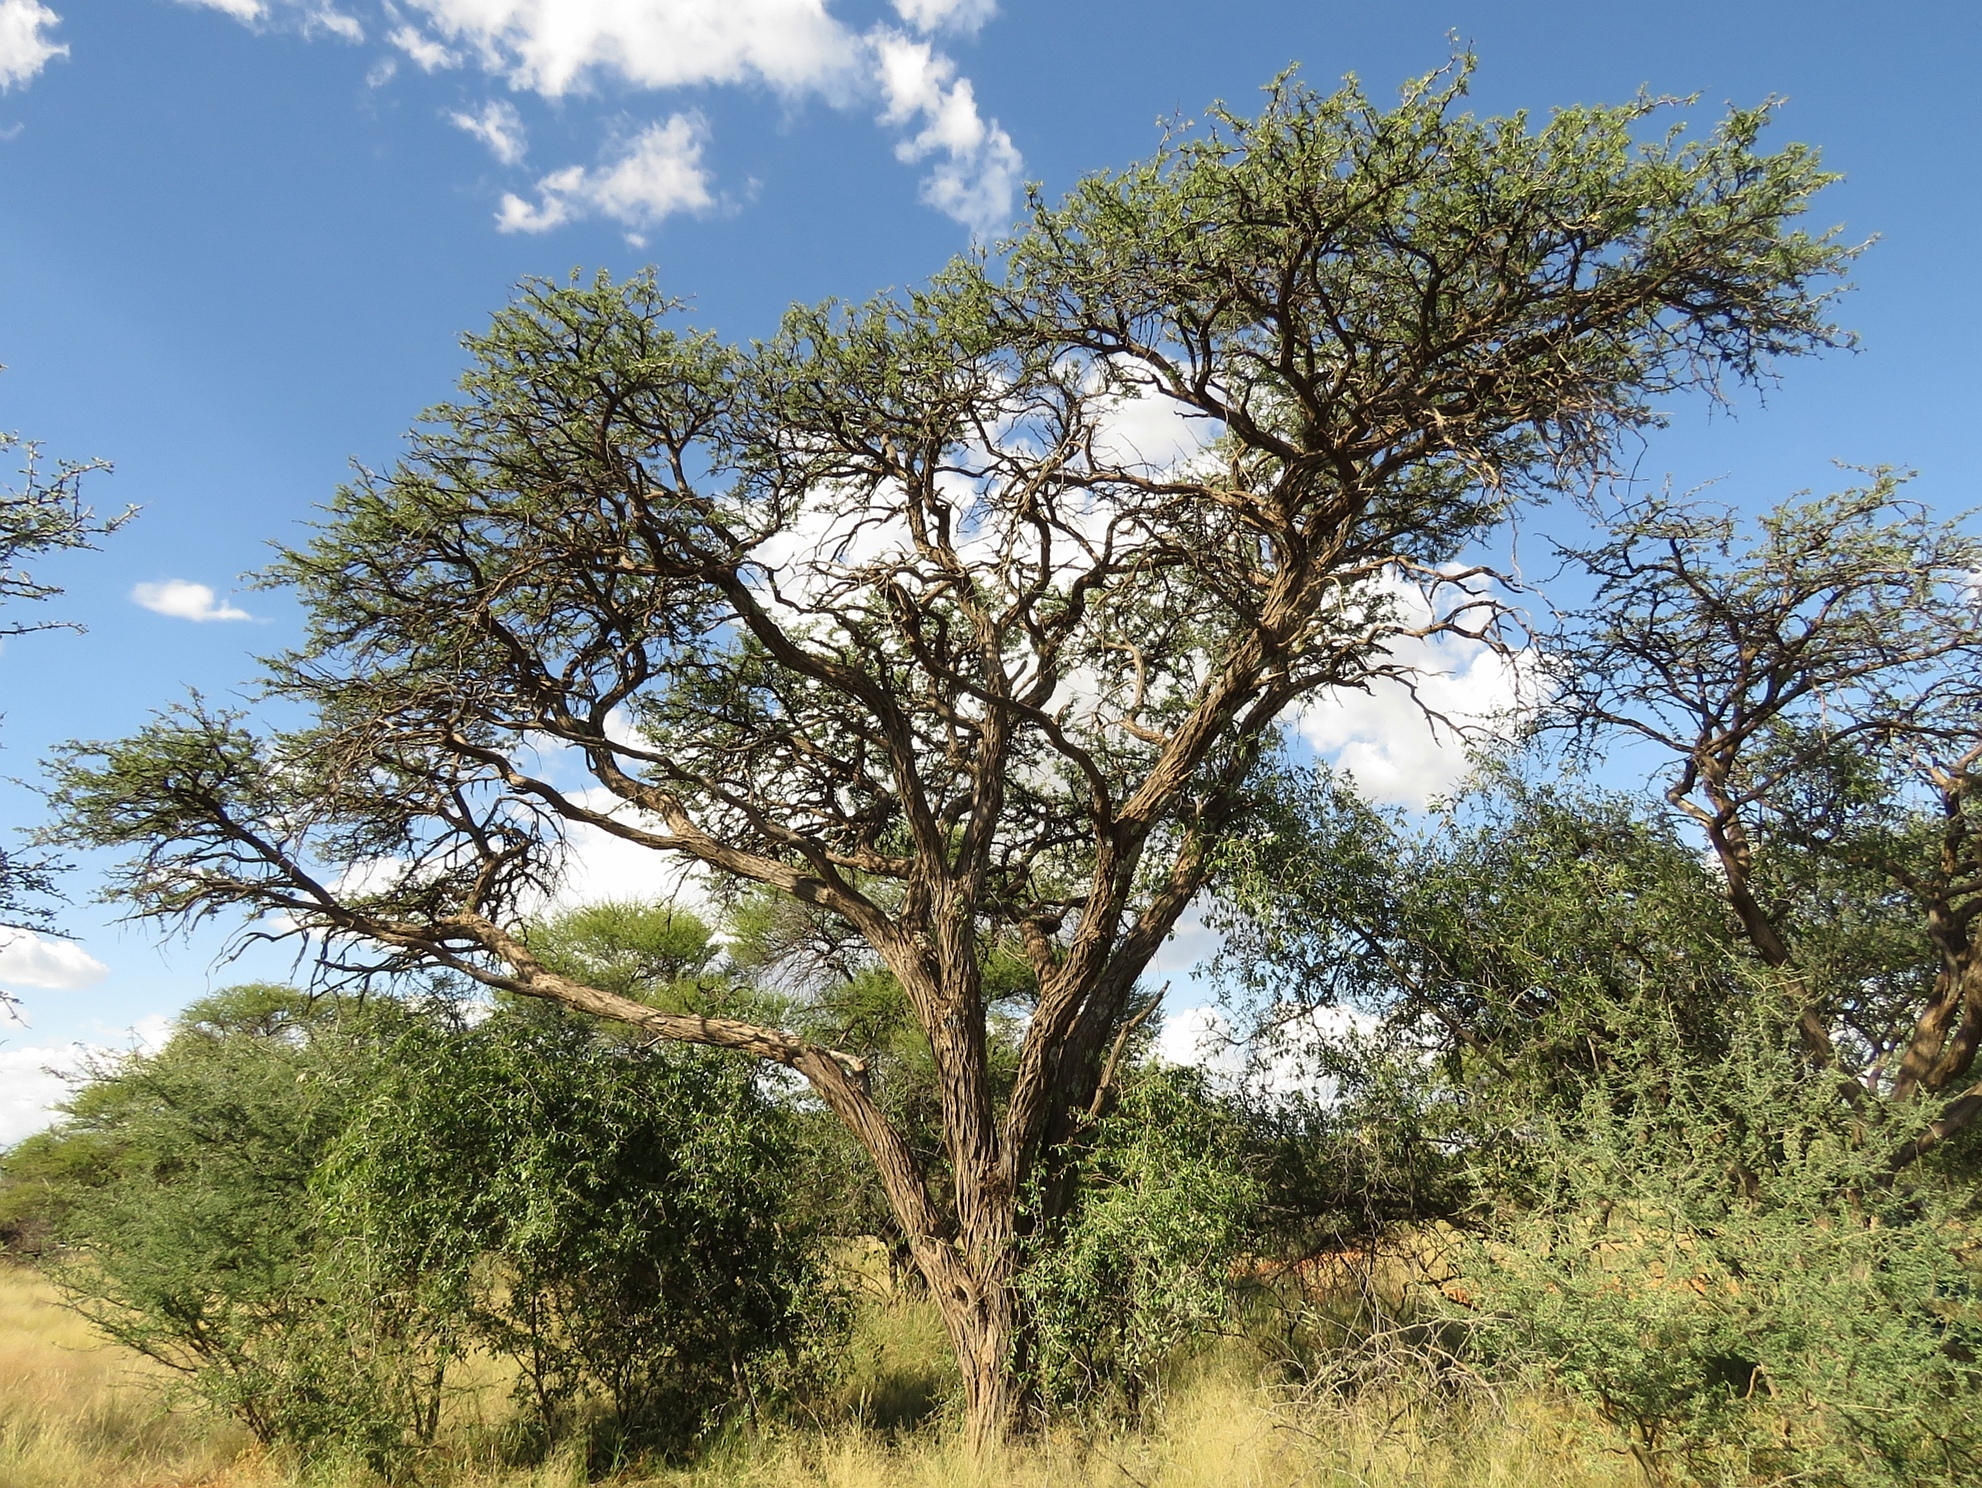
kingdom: Plantae
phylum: Tracheophyta
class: Magnoliopsida
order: Fabales
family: Fabaceae
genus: Vachellia
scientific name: Vachellia erioloba
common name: Camel thorn
